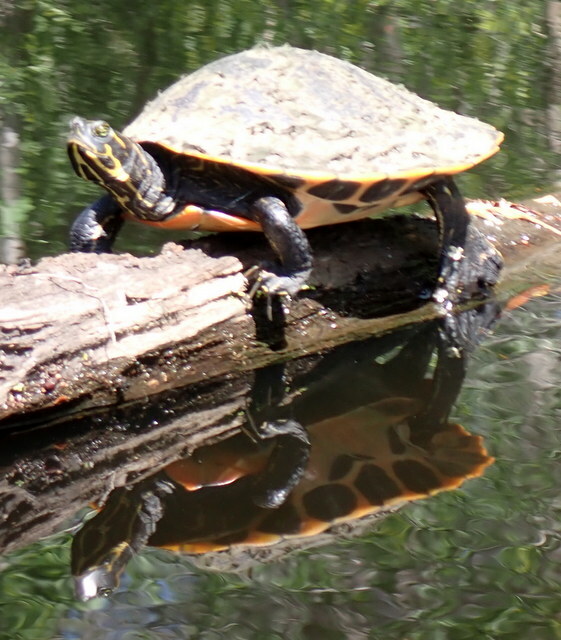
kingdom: Animalia
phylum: Chordata
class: Testudines
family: Emydidae
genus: Pseudemys
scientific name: Pseudemys concinna
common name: Eastern river cooter
